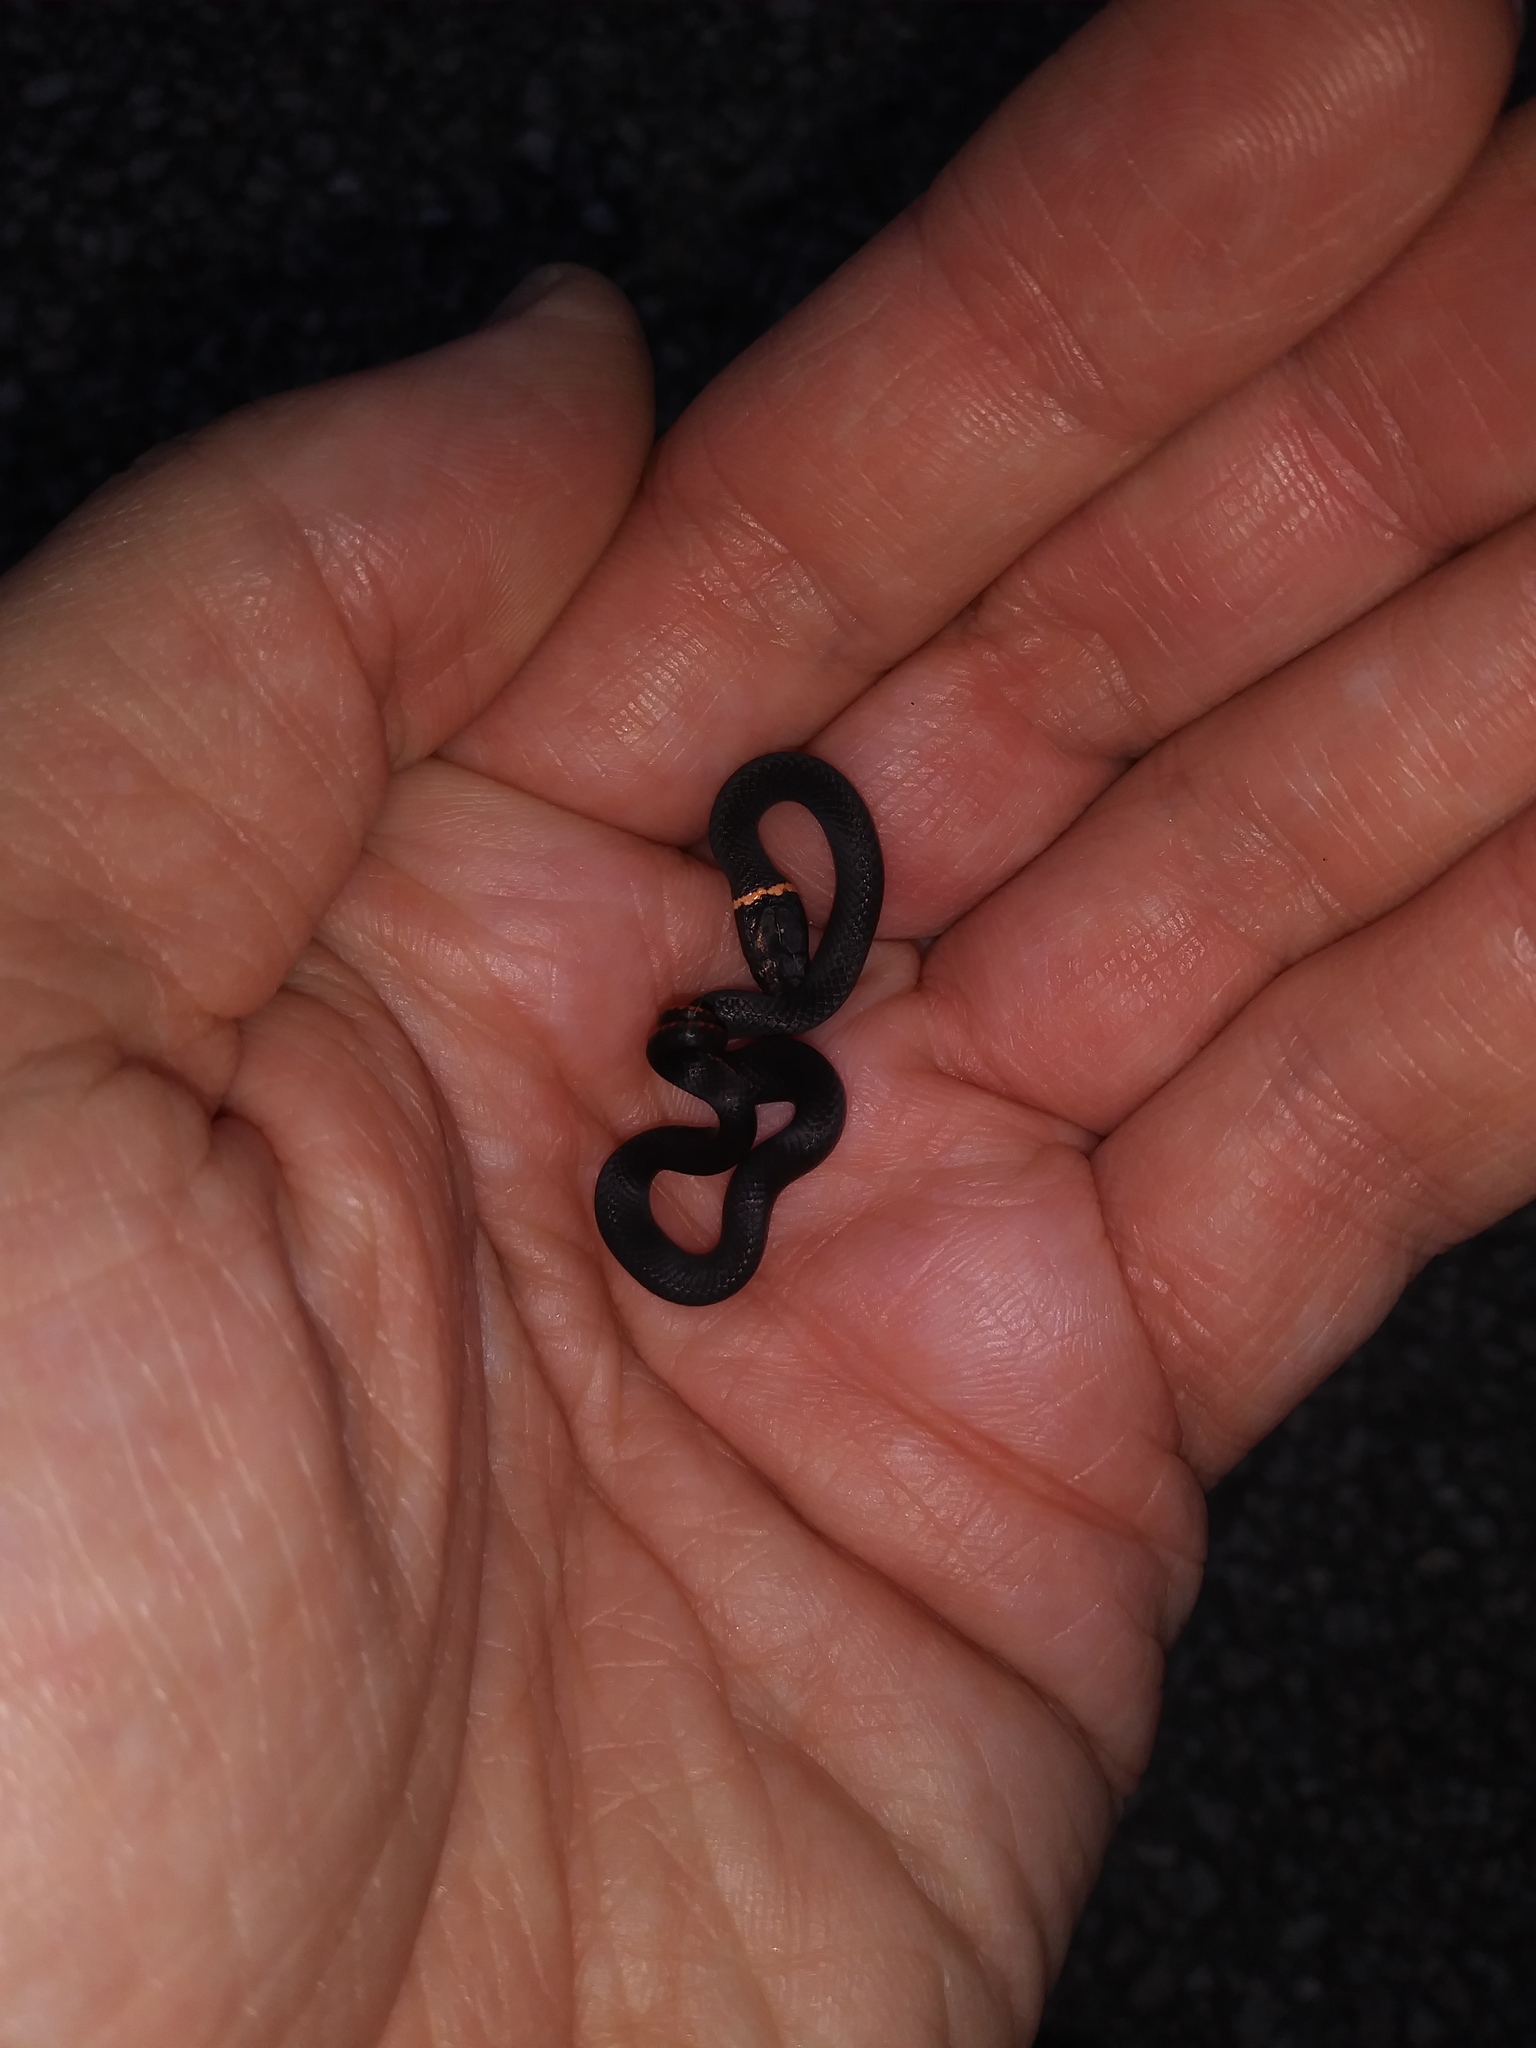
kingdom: Animalia
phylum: Chordata
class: Squamata
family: Colubridae
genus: Diadophis
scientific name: Diadophis punctatus
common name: Ringneck snake
